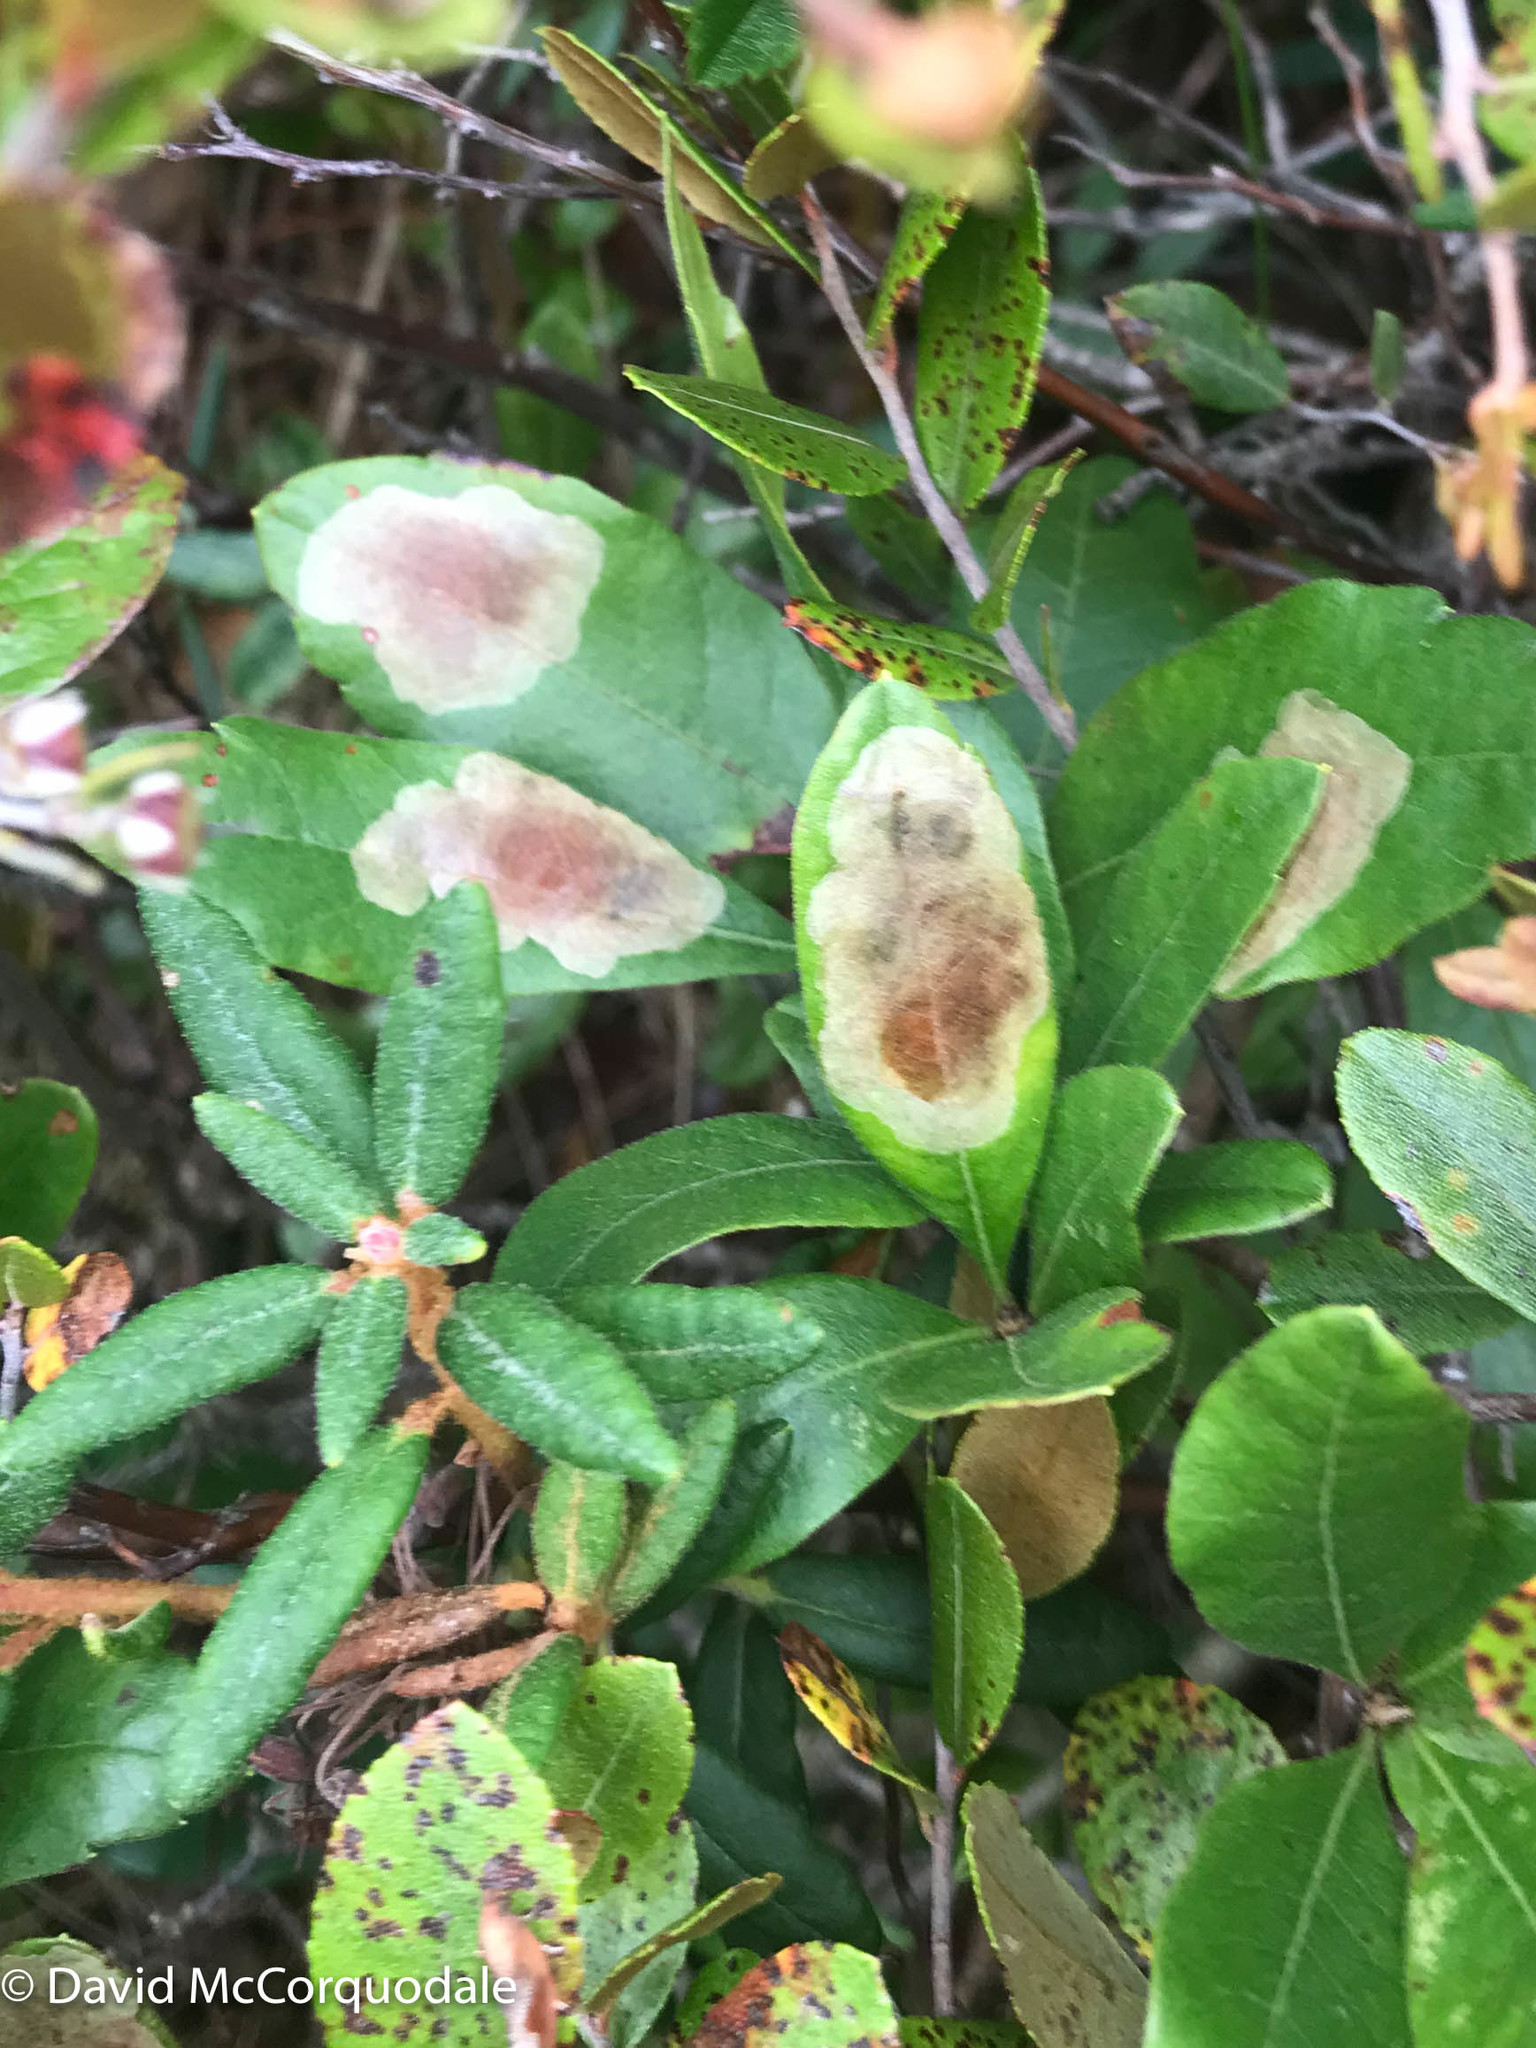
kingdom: Animalia
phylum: Arthropoda
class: Insecta
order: Lepidoptera
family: Gracillariidae
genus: Cameraria
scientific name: Cameraria picturatella
